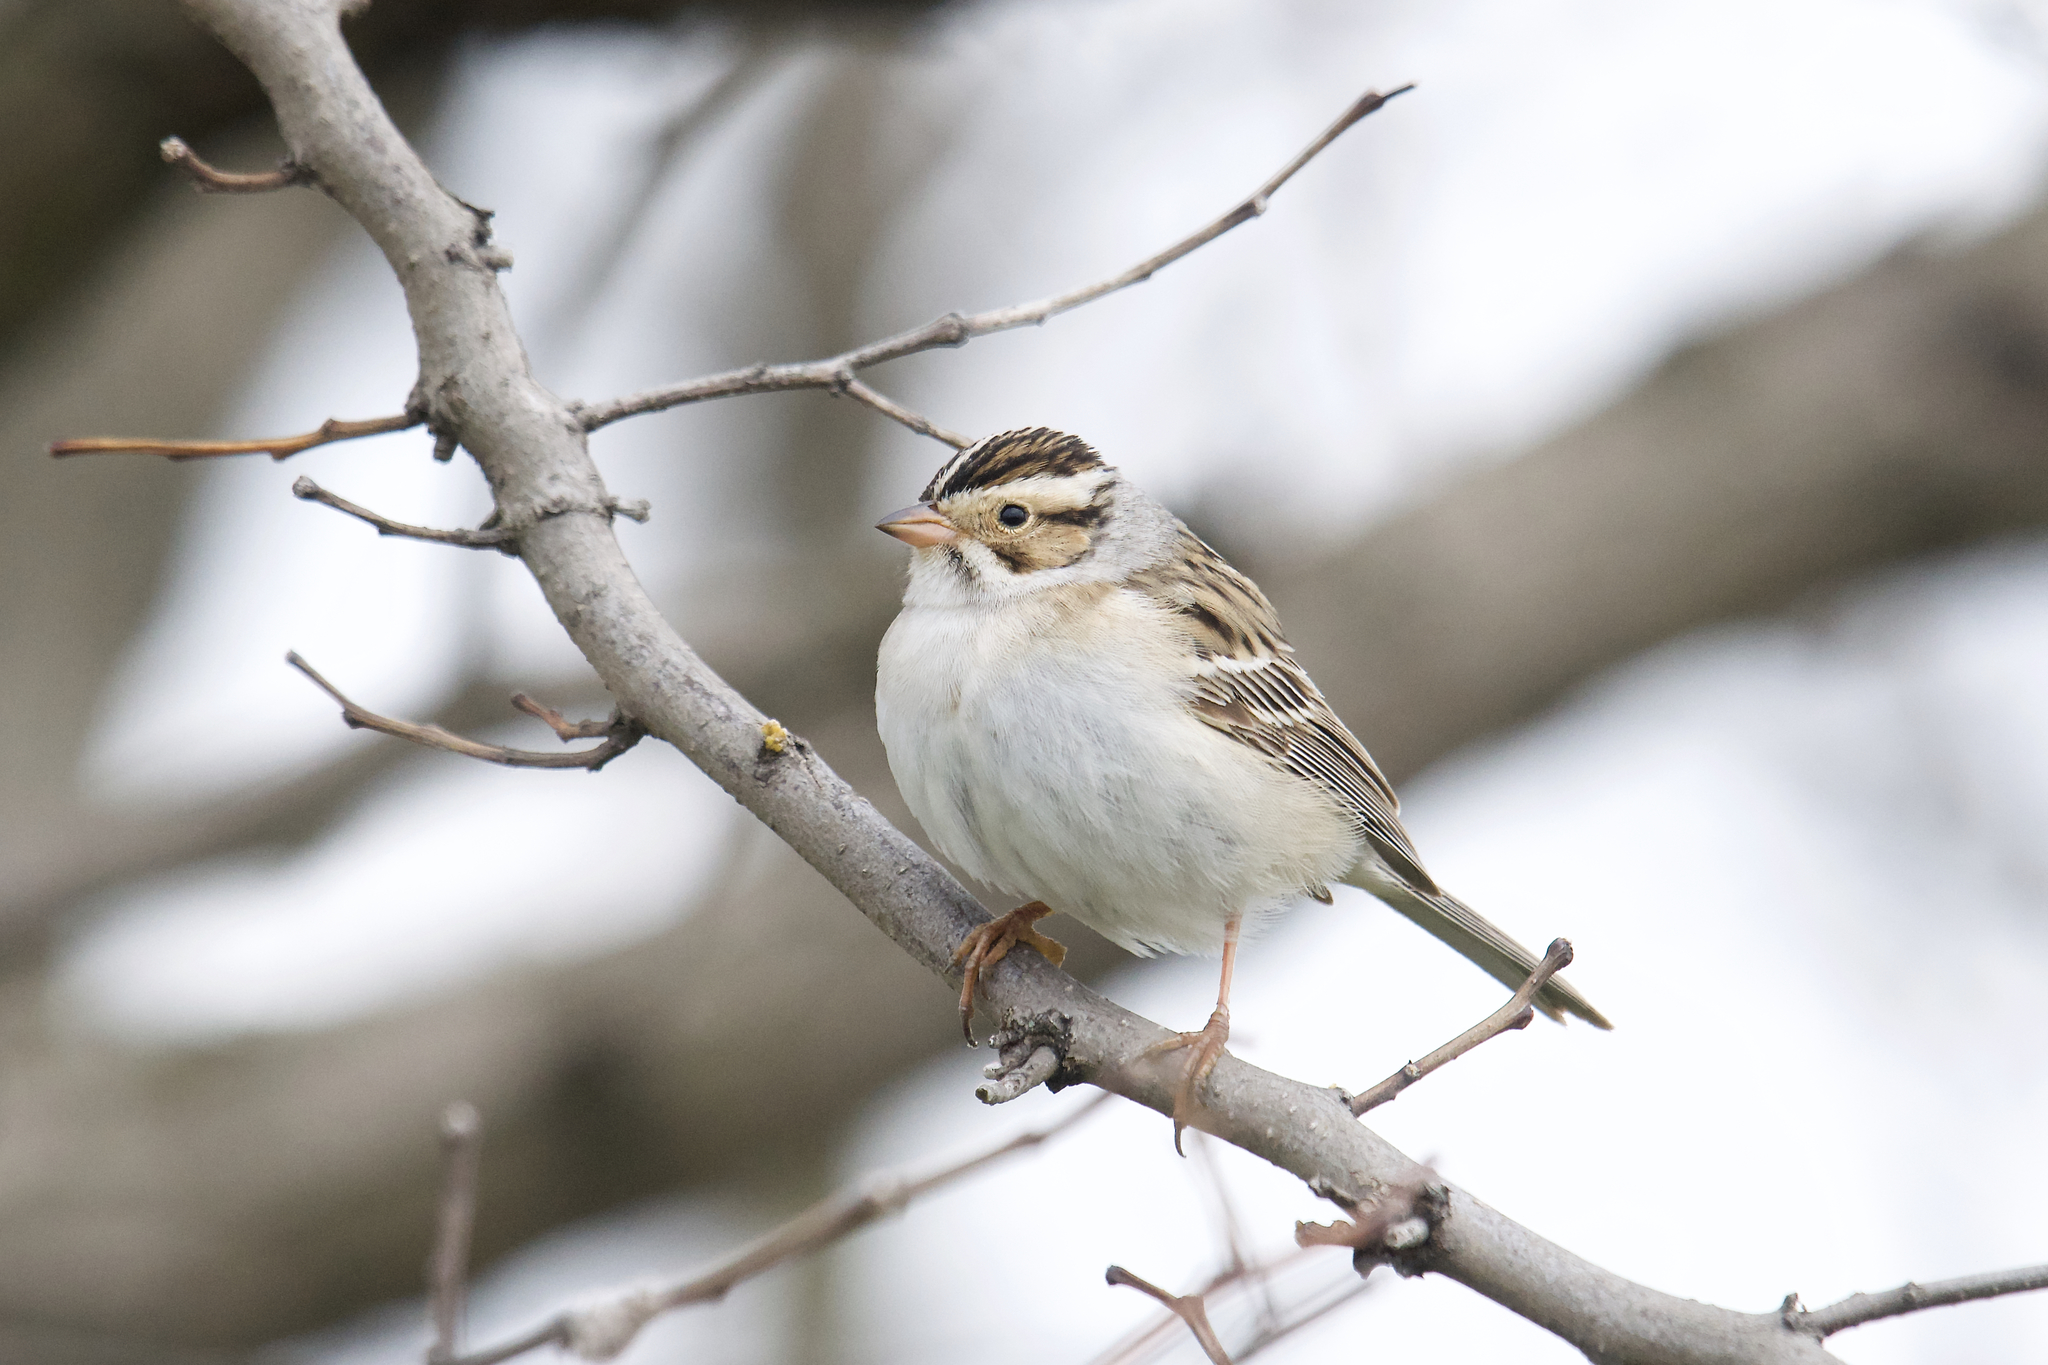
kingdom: Animalia
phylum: Chordata
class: Aves
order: Passeriformes
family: Passerellidae
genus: Spizella
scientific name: Spizella pallida
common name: Clay-colored sparrow
